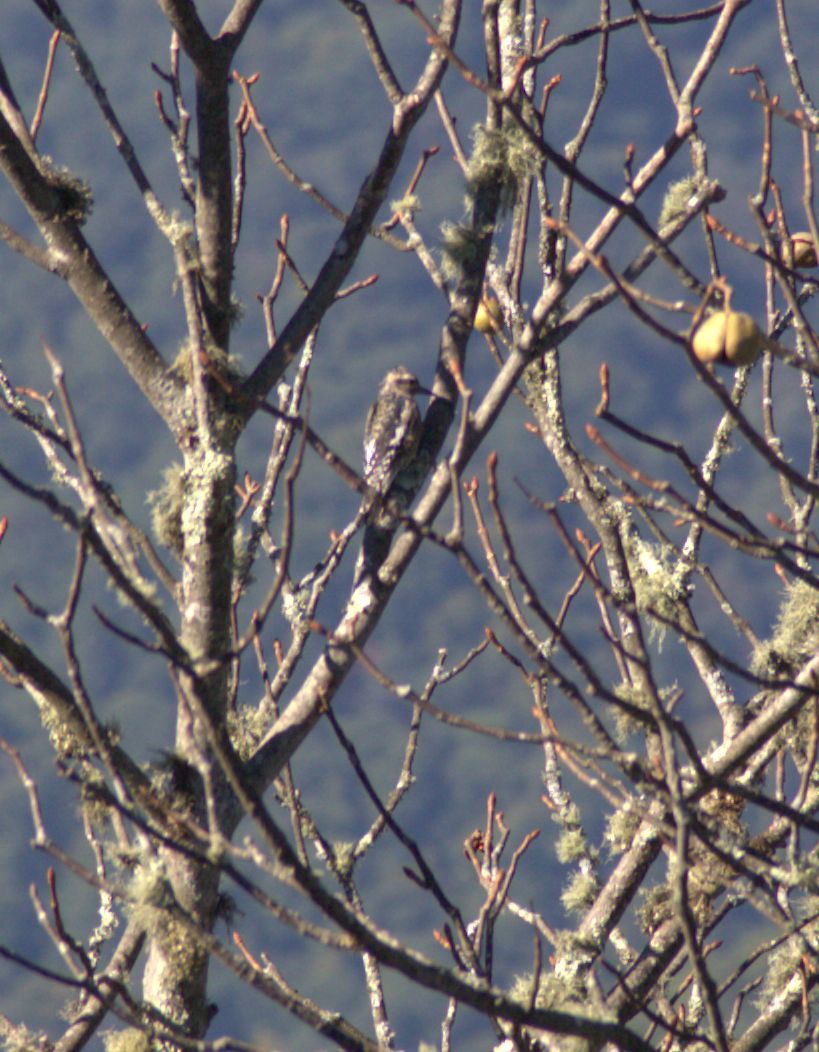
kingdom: Animalia
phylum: Chordata
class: Aves
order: Piciformes
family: Picidae
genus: Sphyrapicus
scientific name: Sphyrapicus varius
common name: Yellow-bellied sapsucker
